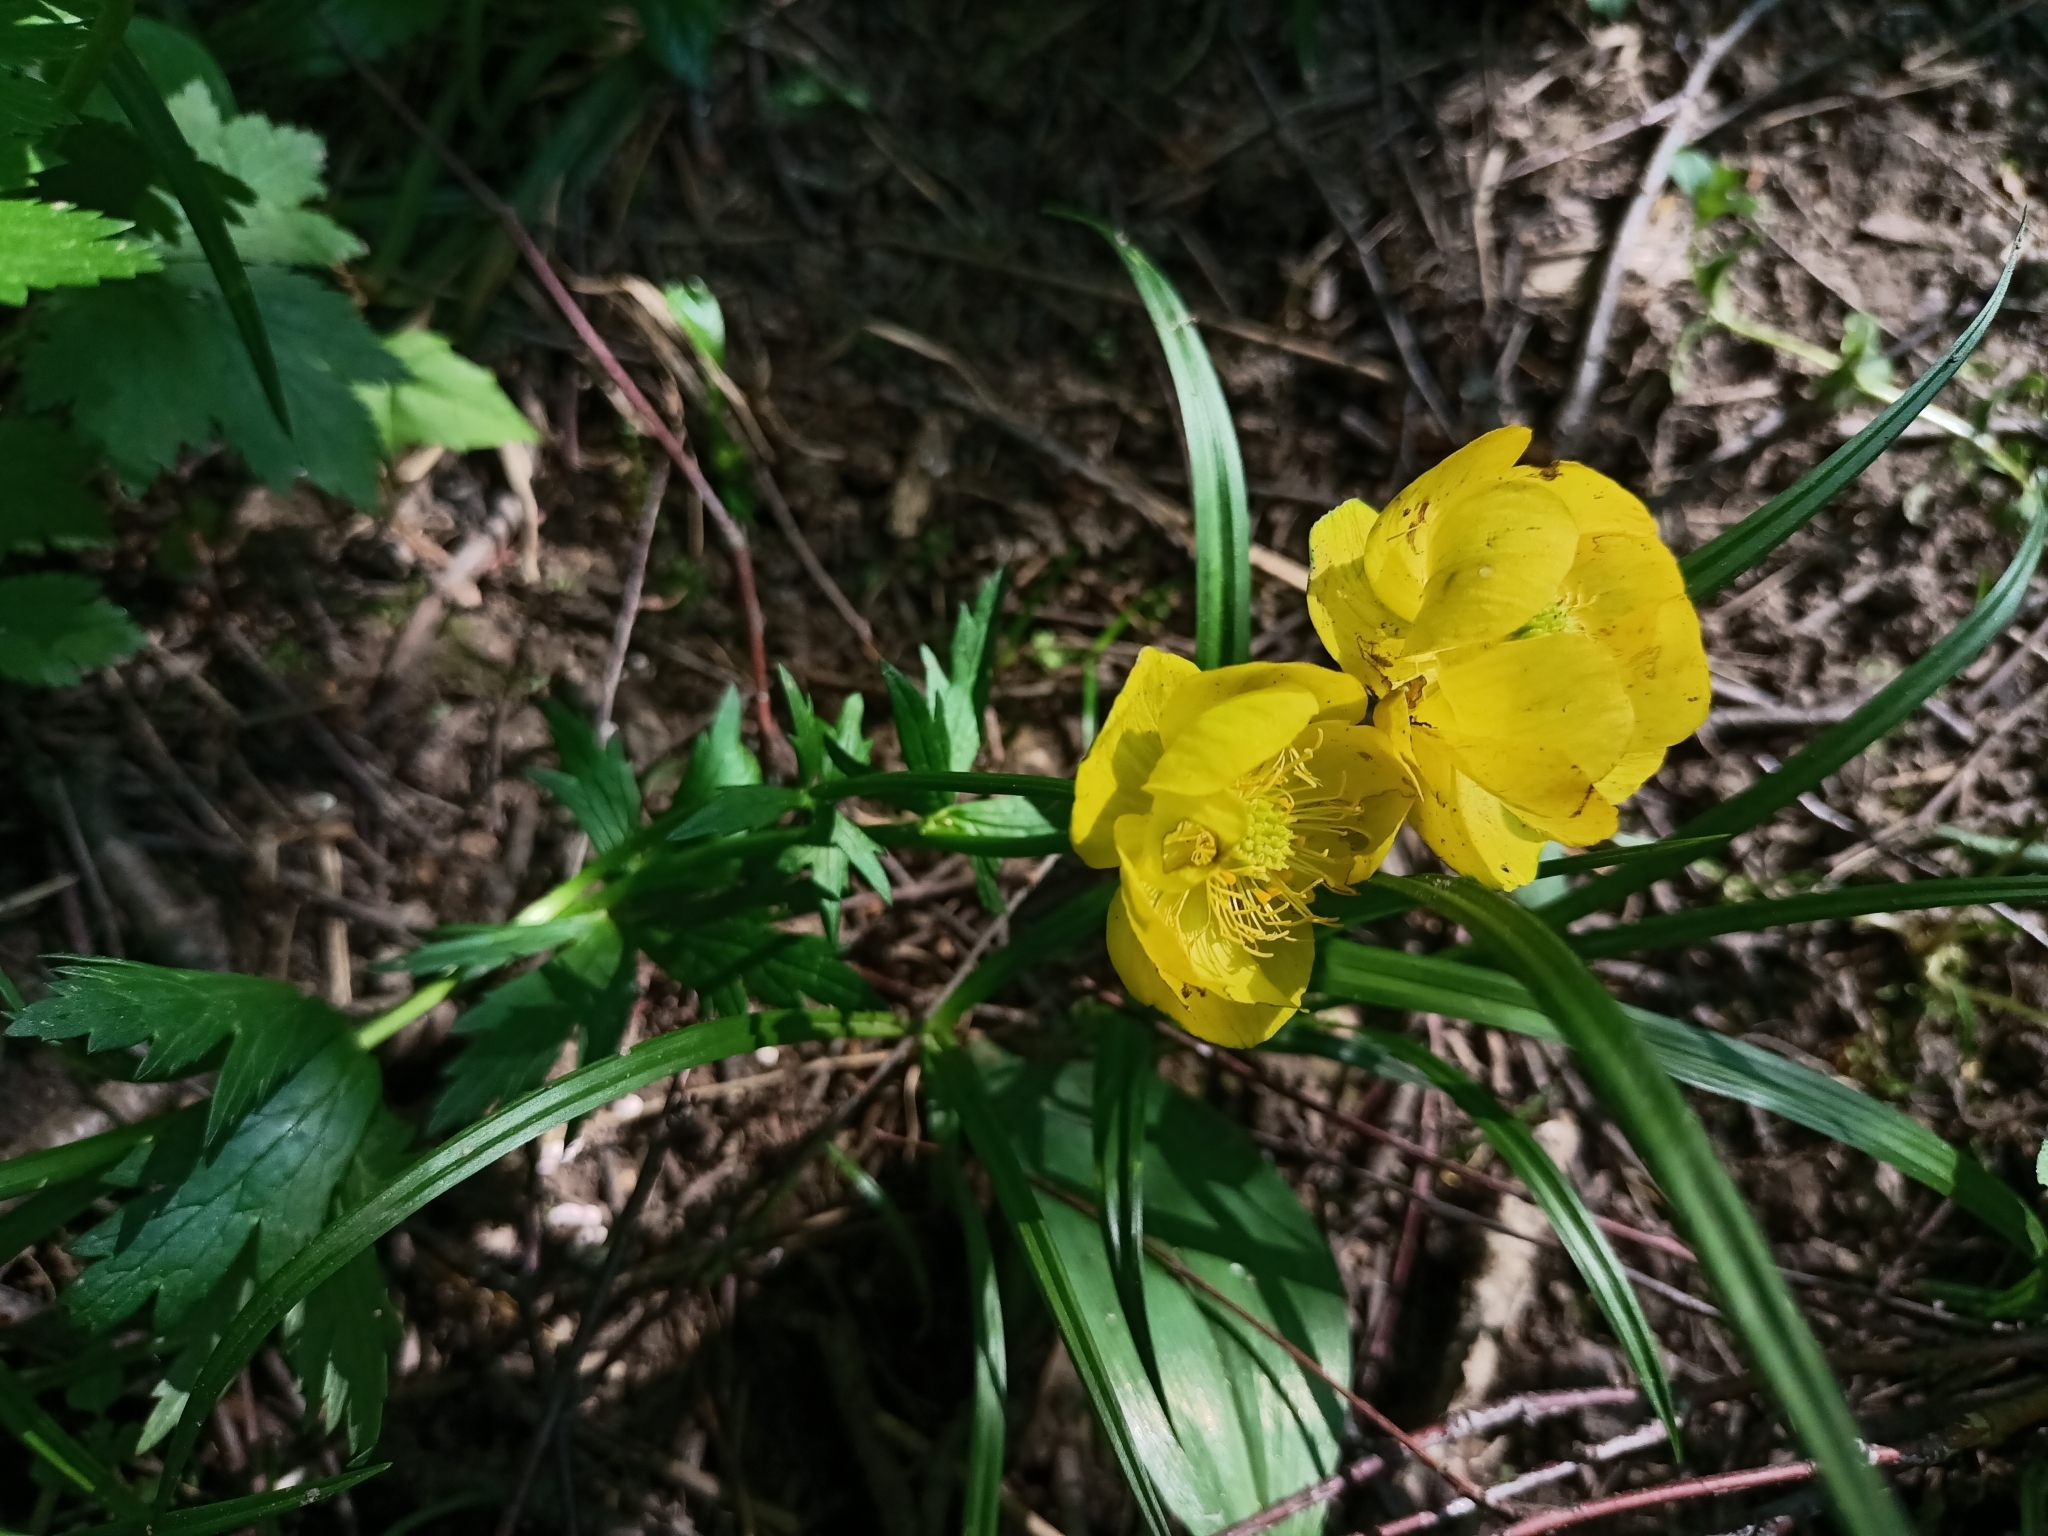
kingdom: Plantae
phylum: Tracheophyta
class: Magnoliopsida
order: Ranunculales
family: Ranunculaceae
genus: Trollius
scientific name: Trollius europaeus
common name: European globeflower
